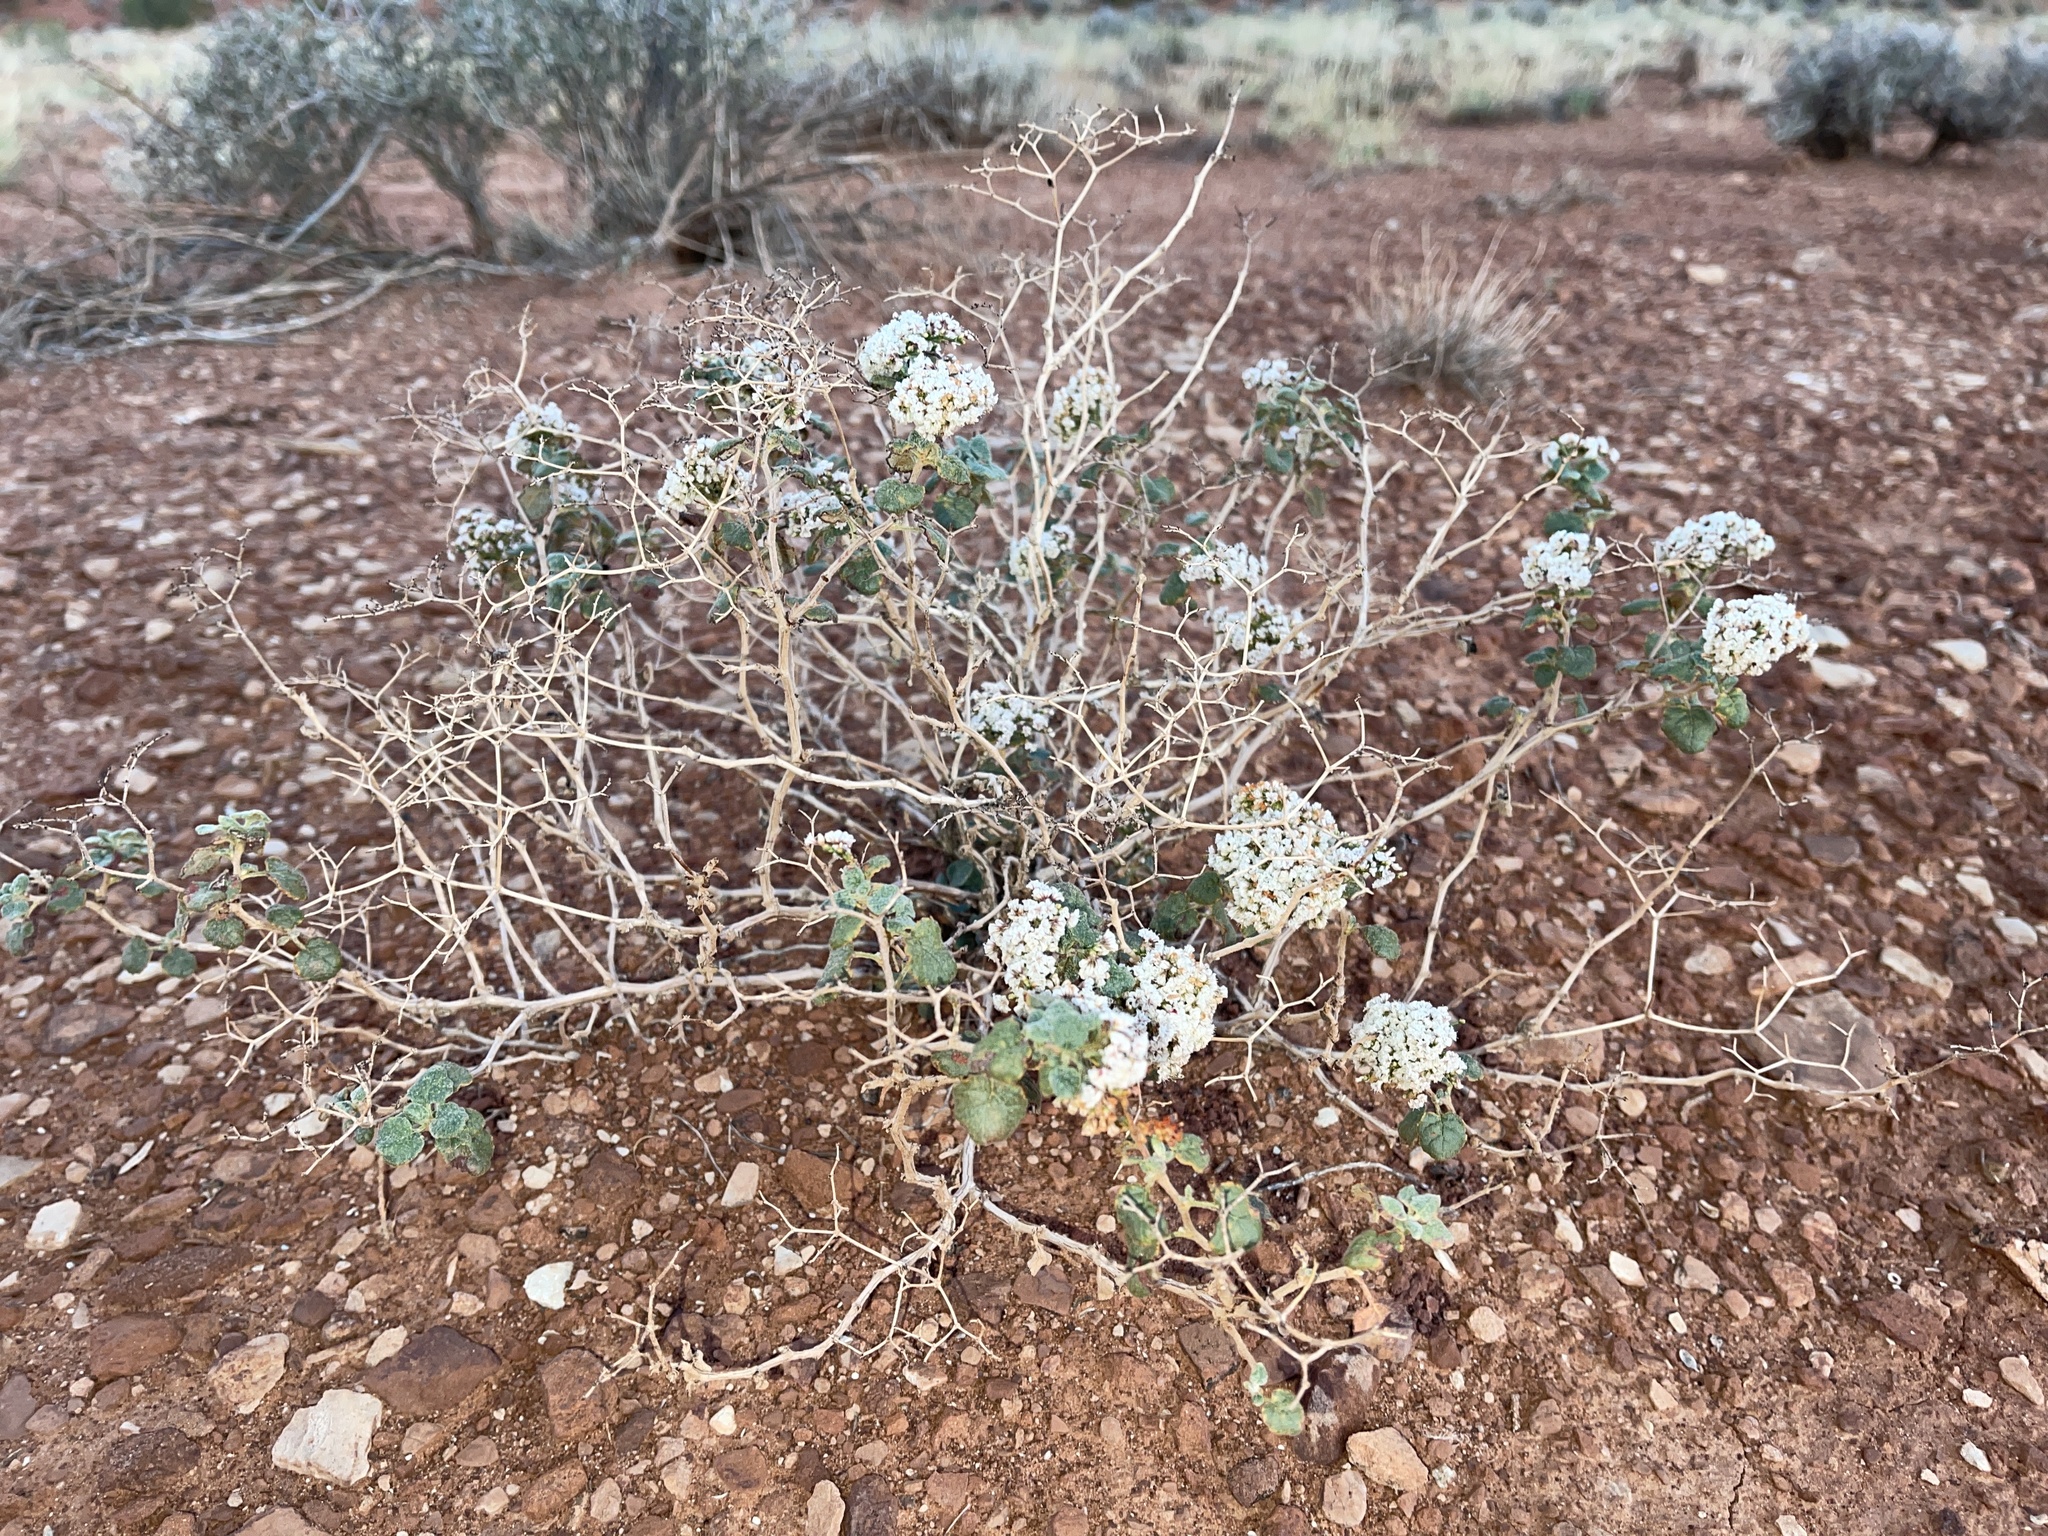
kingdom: Plantae
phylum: Tracheophyta
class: Magnoliopsida
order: Caryophyllales
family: Polygonaceae
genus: Eriogonum
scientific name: Eriogonum corymbosum
